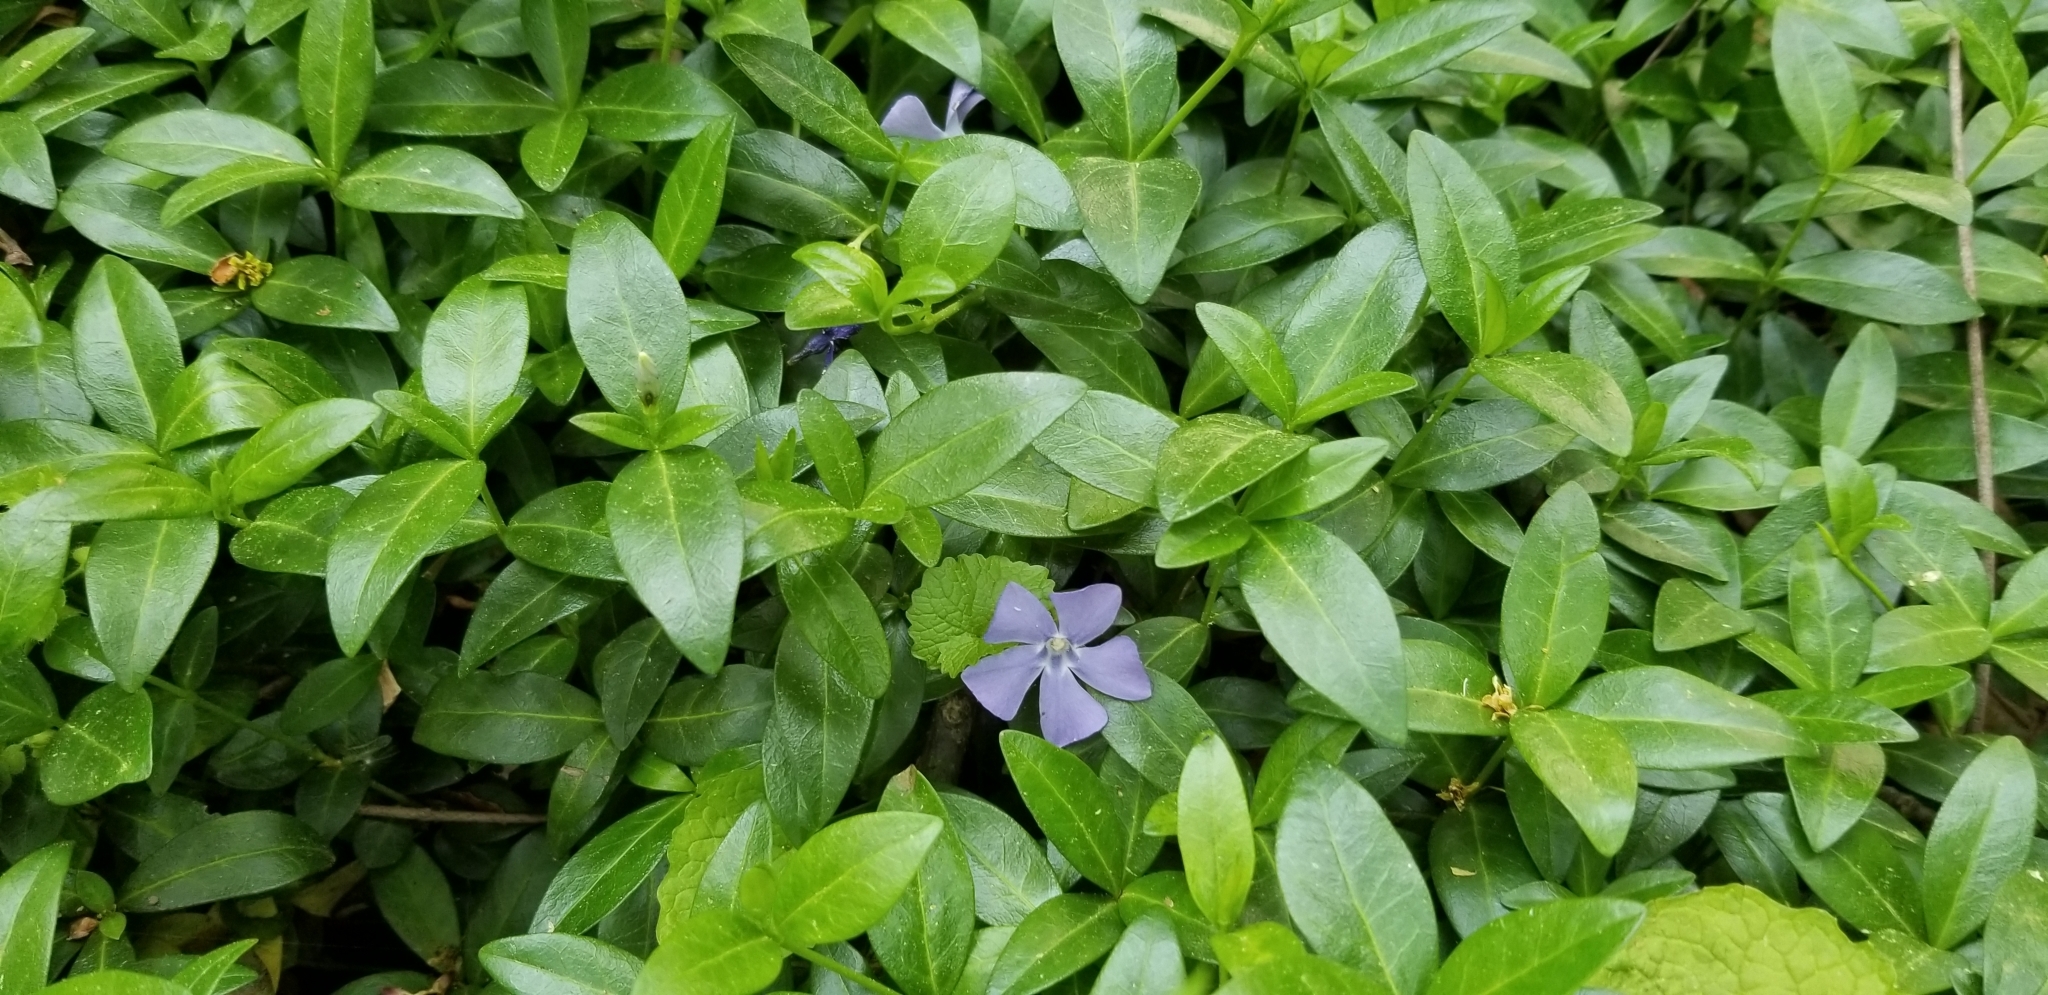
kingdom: Plantae
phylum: Tracheophyta
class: Magnoliopsida
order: Gentianales
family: Apocynaceae
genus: Vinca
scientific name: Vinca minor
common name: Lesser periwinkle
